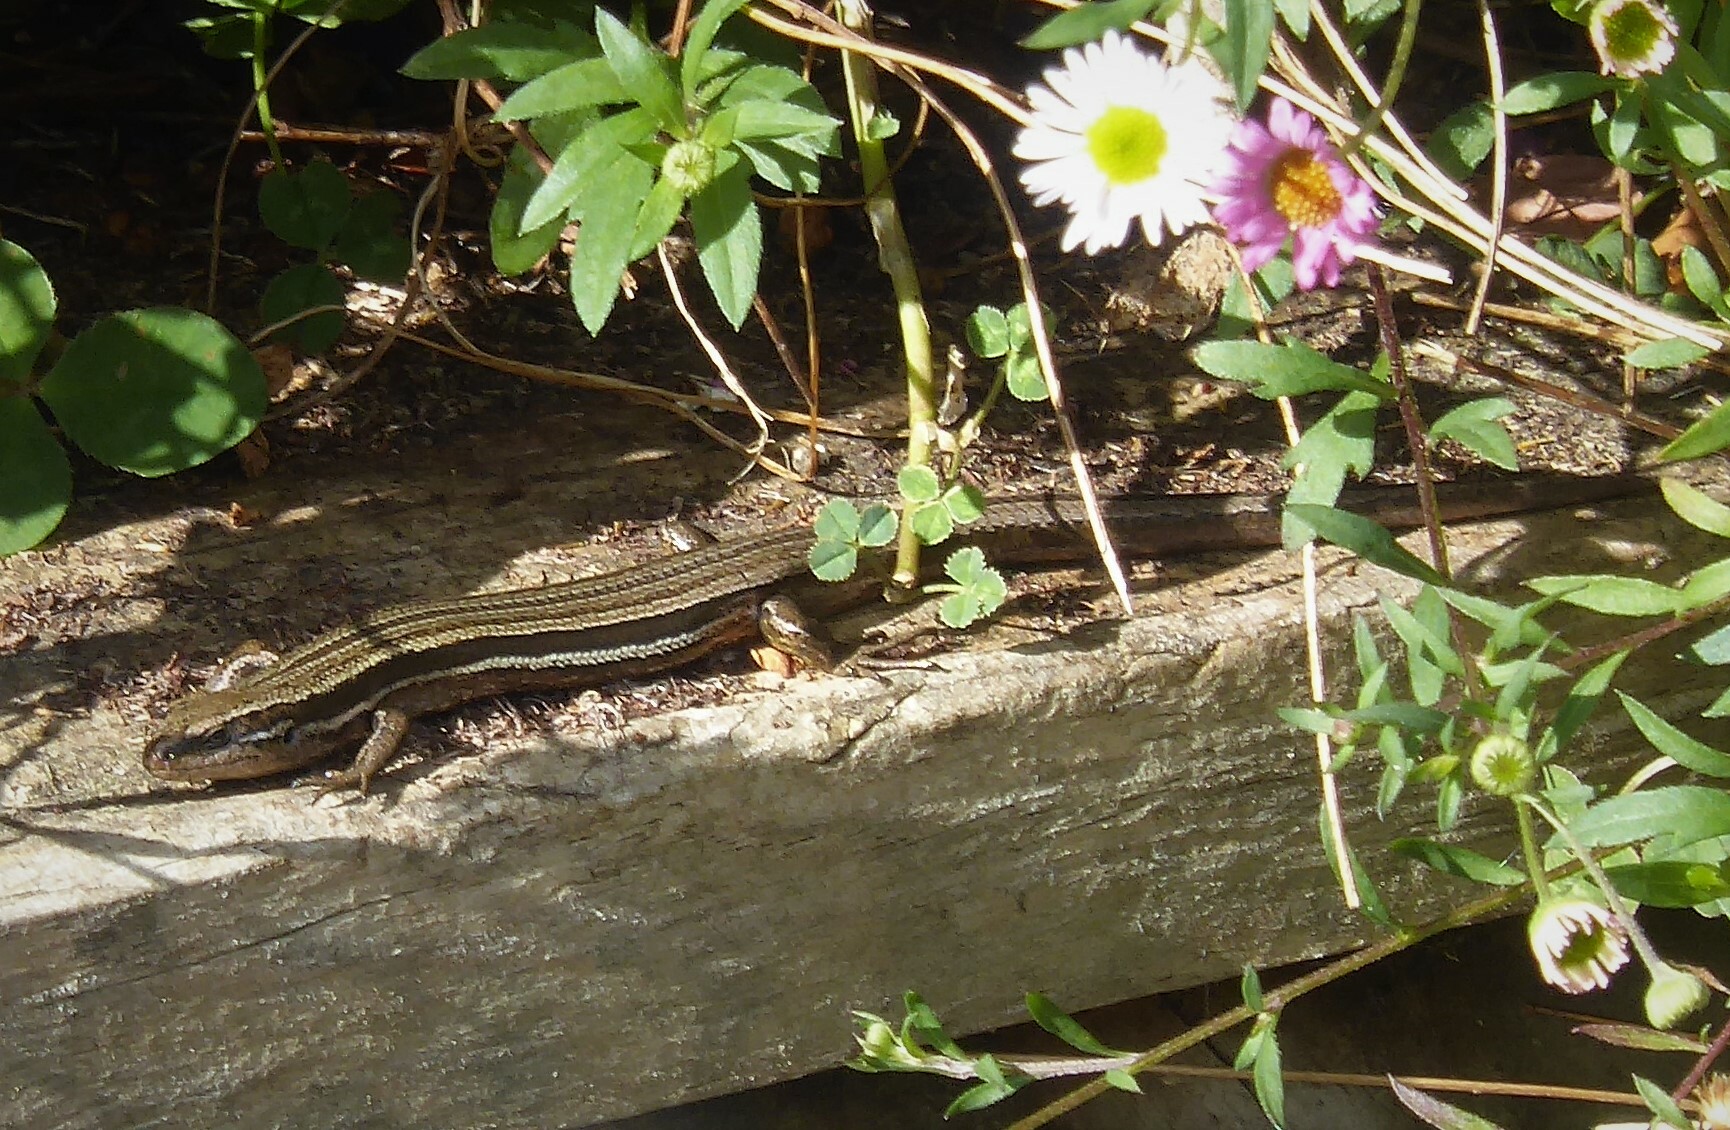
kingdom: Animalia
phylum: Chordata
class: Squamata
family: Scincidae
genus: Oligosoma
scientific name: Oligosoma polychroma
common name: Common new zealand skink
